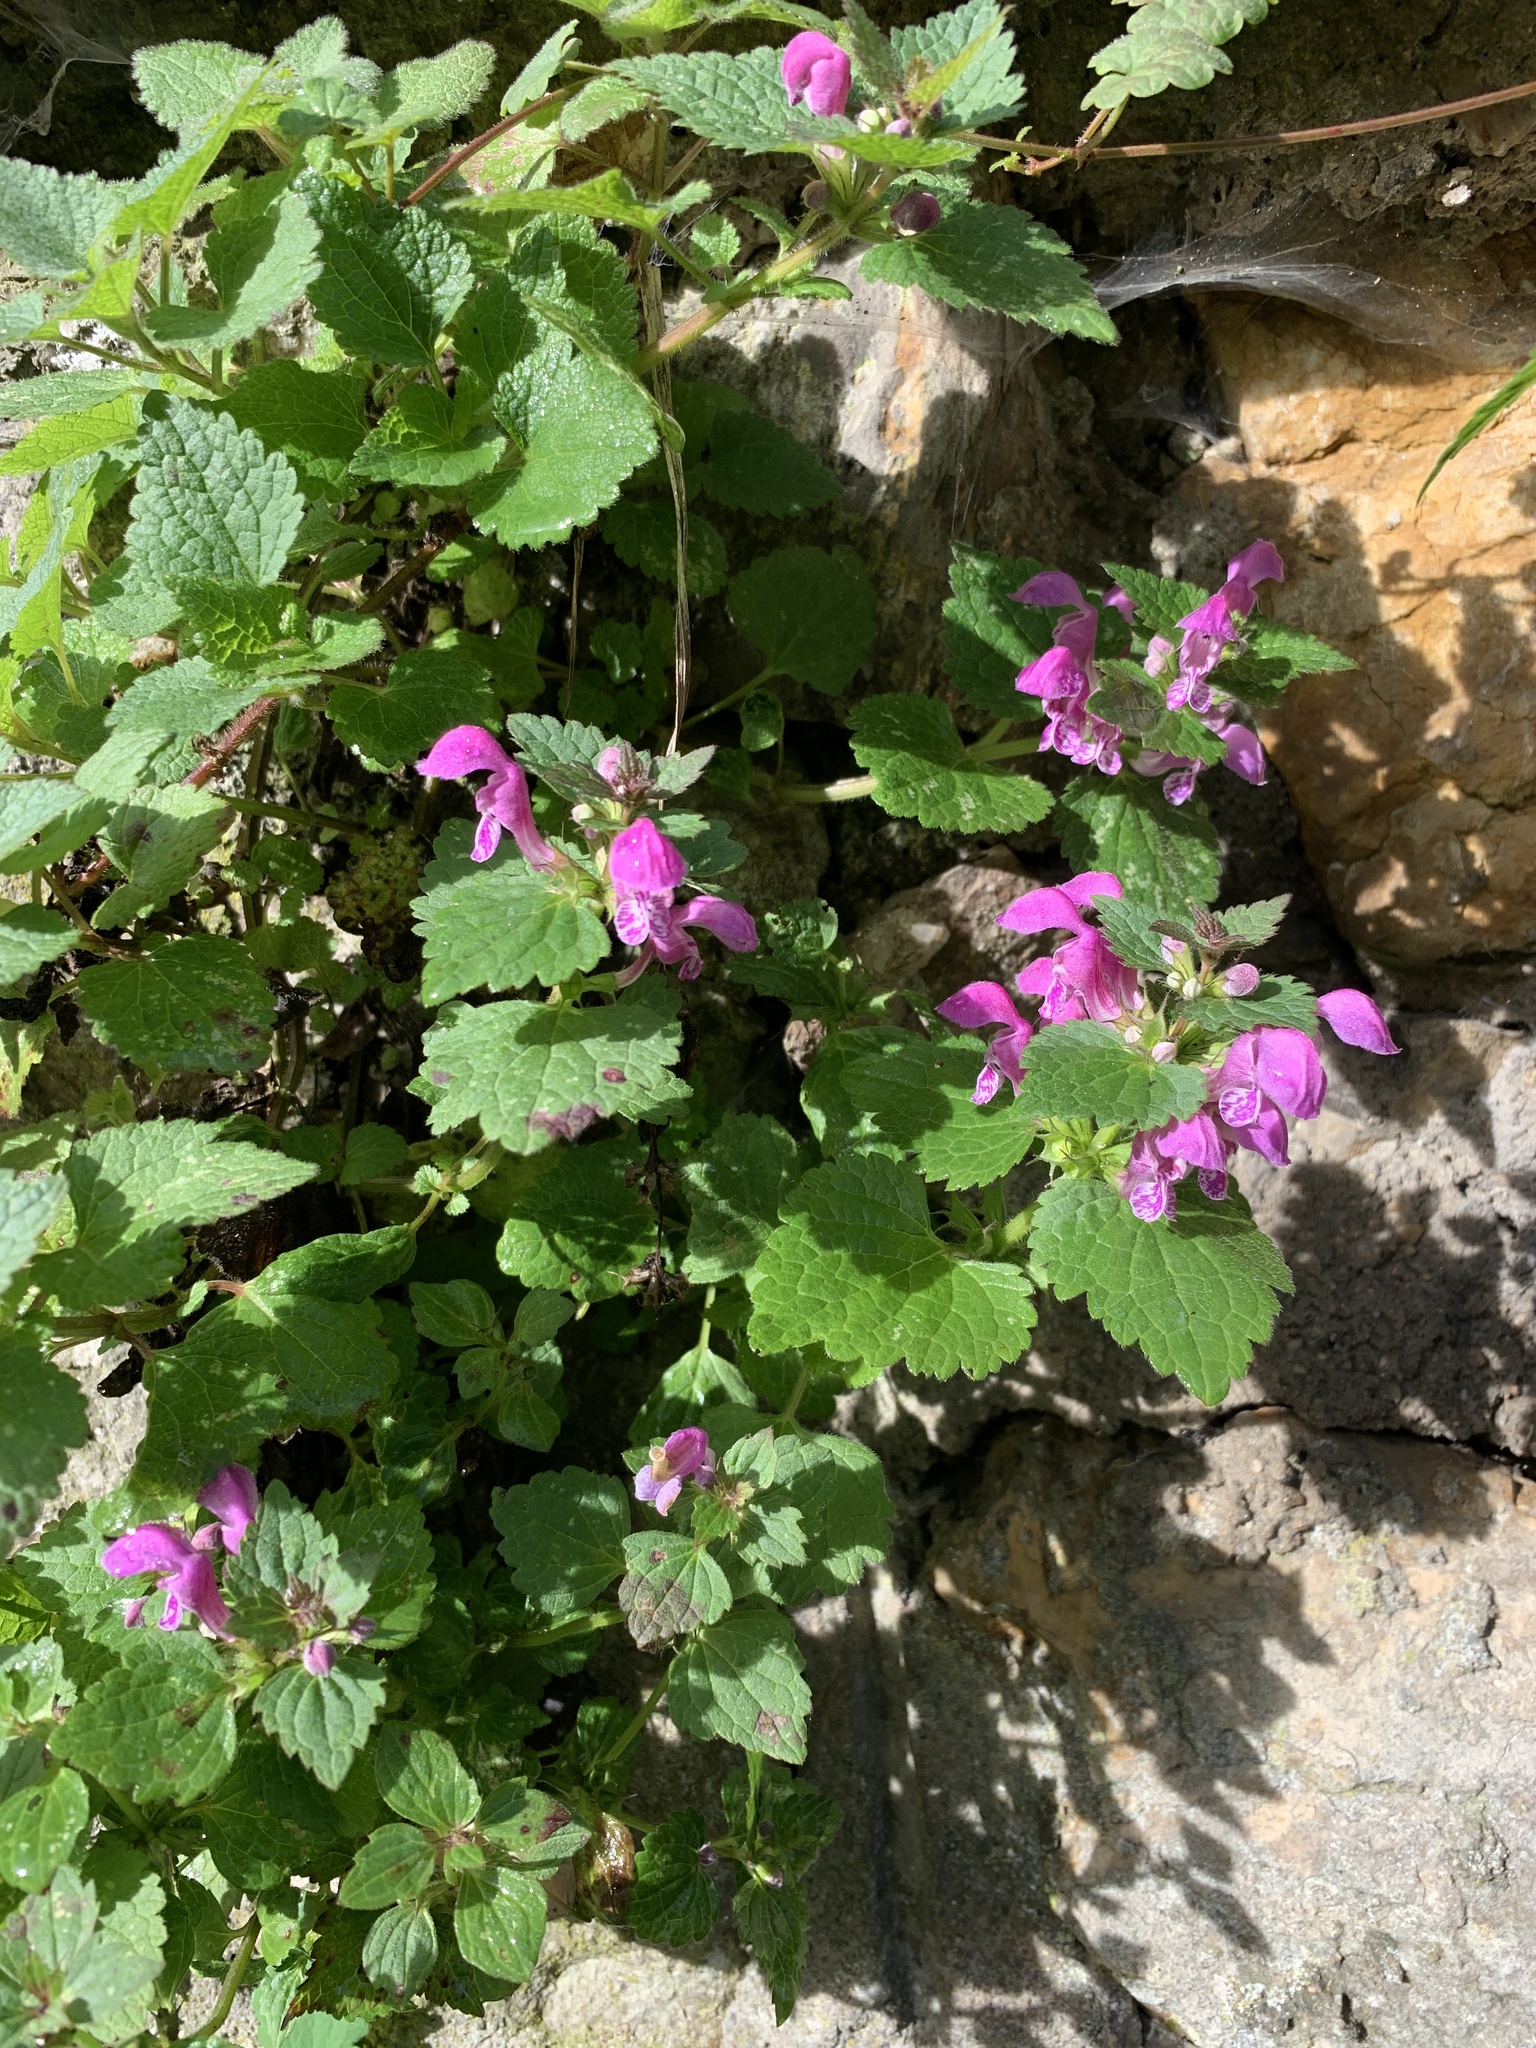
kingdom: Plantae
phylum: Tracheophyta
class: Magnoliopsida
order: Lamiales
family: Lamiaceae
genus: Lamium
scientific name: Lamium maculatum
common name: Spotted dead-nettle
